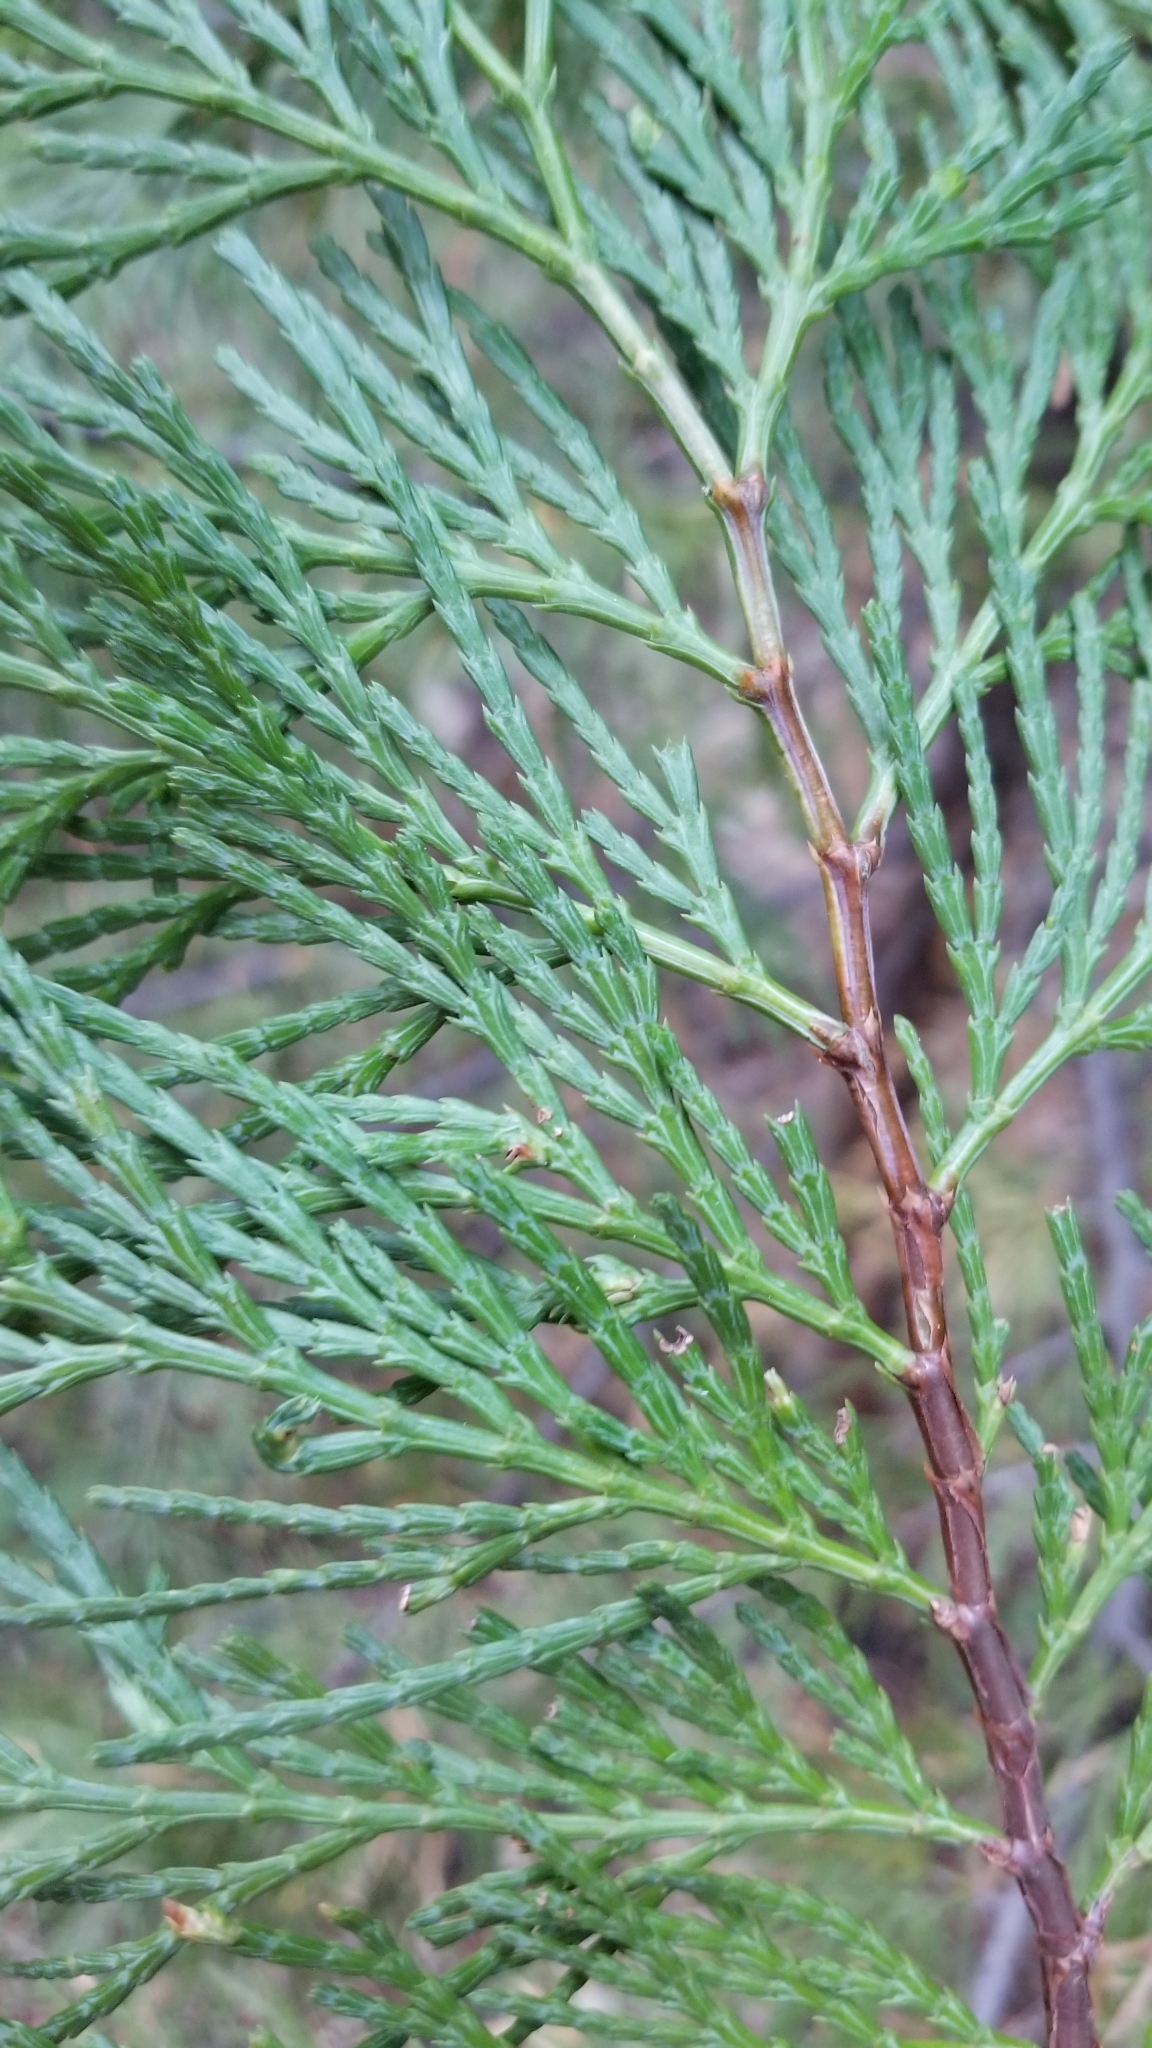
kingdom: Plantae
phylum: Tracheophyta
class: Pinopsida
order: Pinales
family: Cupressaceae
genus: Calocedrus
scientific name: Calocedrus decurrens
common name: Californian incense-cedar
